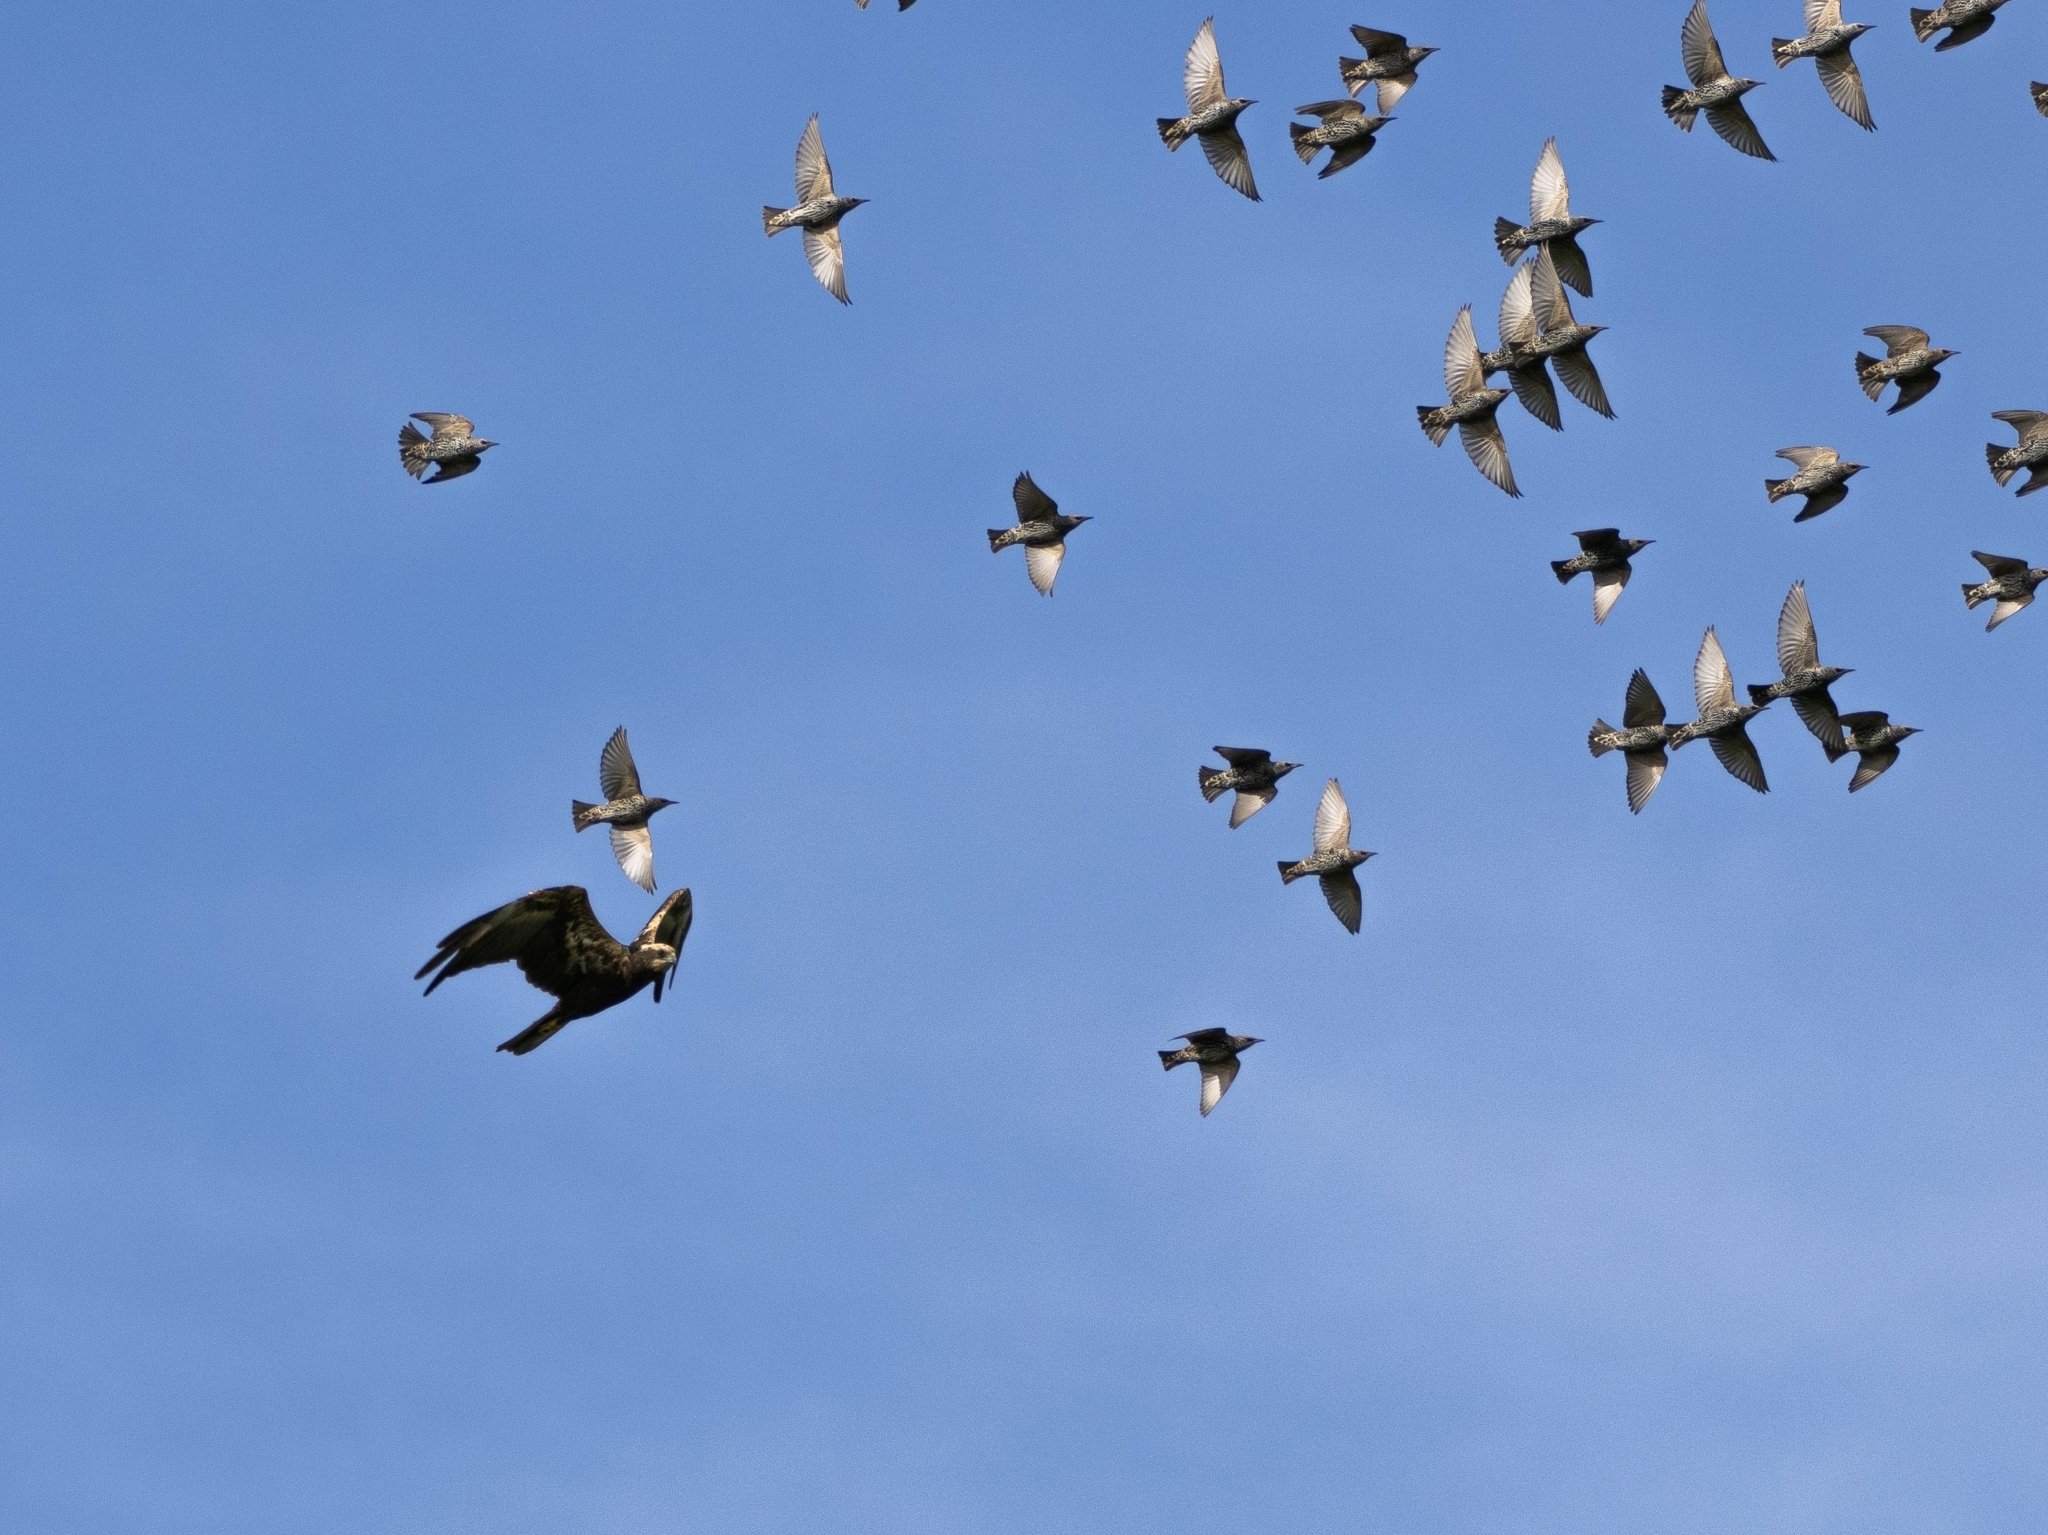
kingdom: Animalia
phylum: Chordata
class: Aves
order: Accipitriformes
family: Accipitridae
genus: Circus
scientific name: Circus aeruginosus
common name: Western marsh harrier
